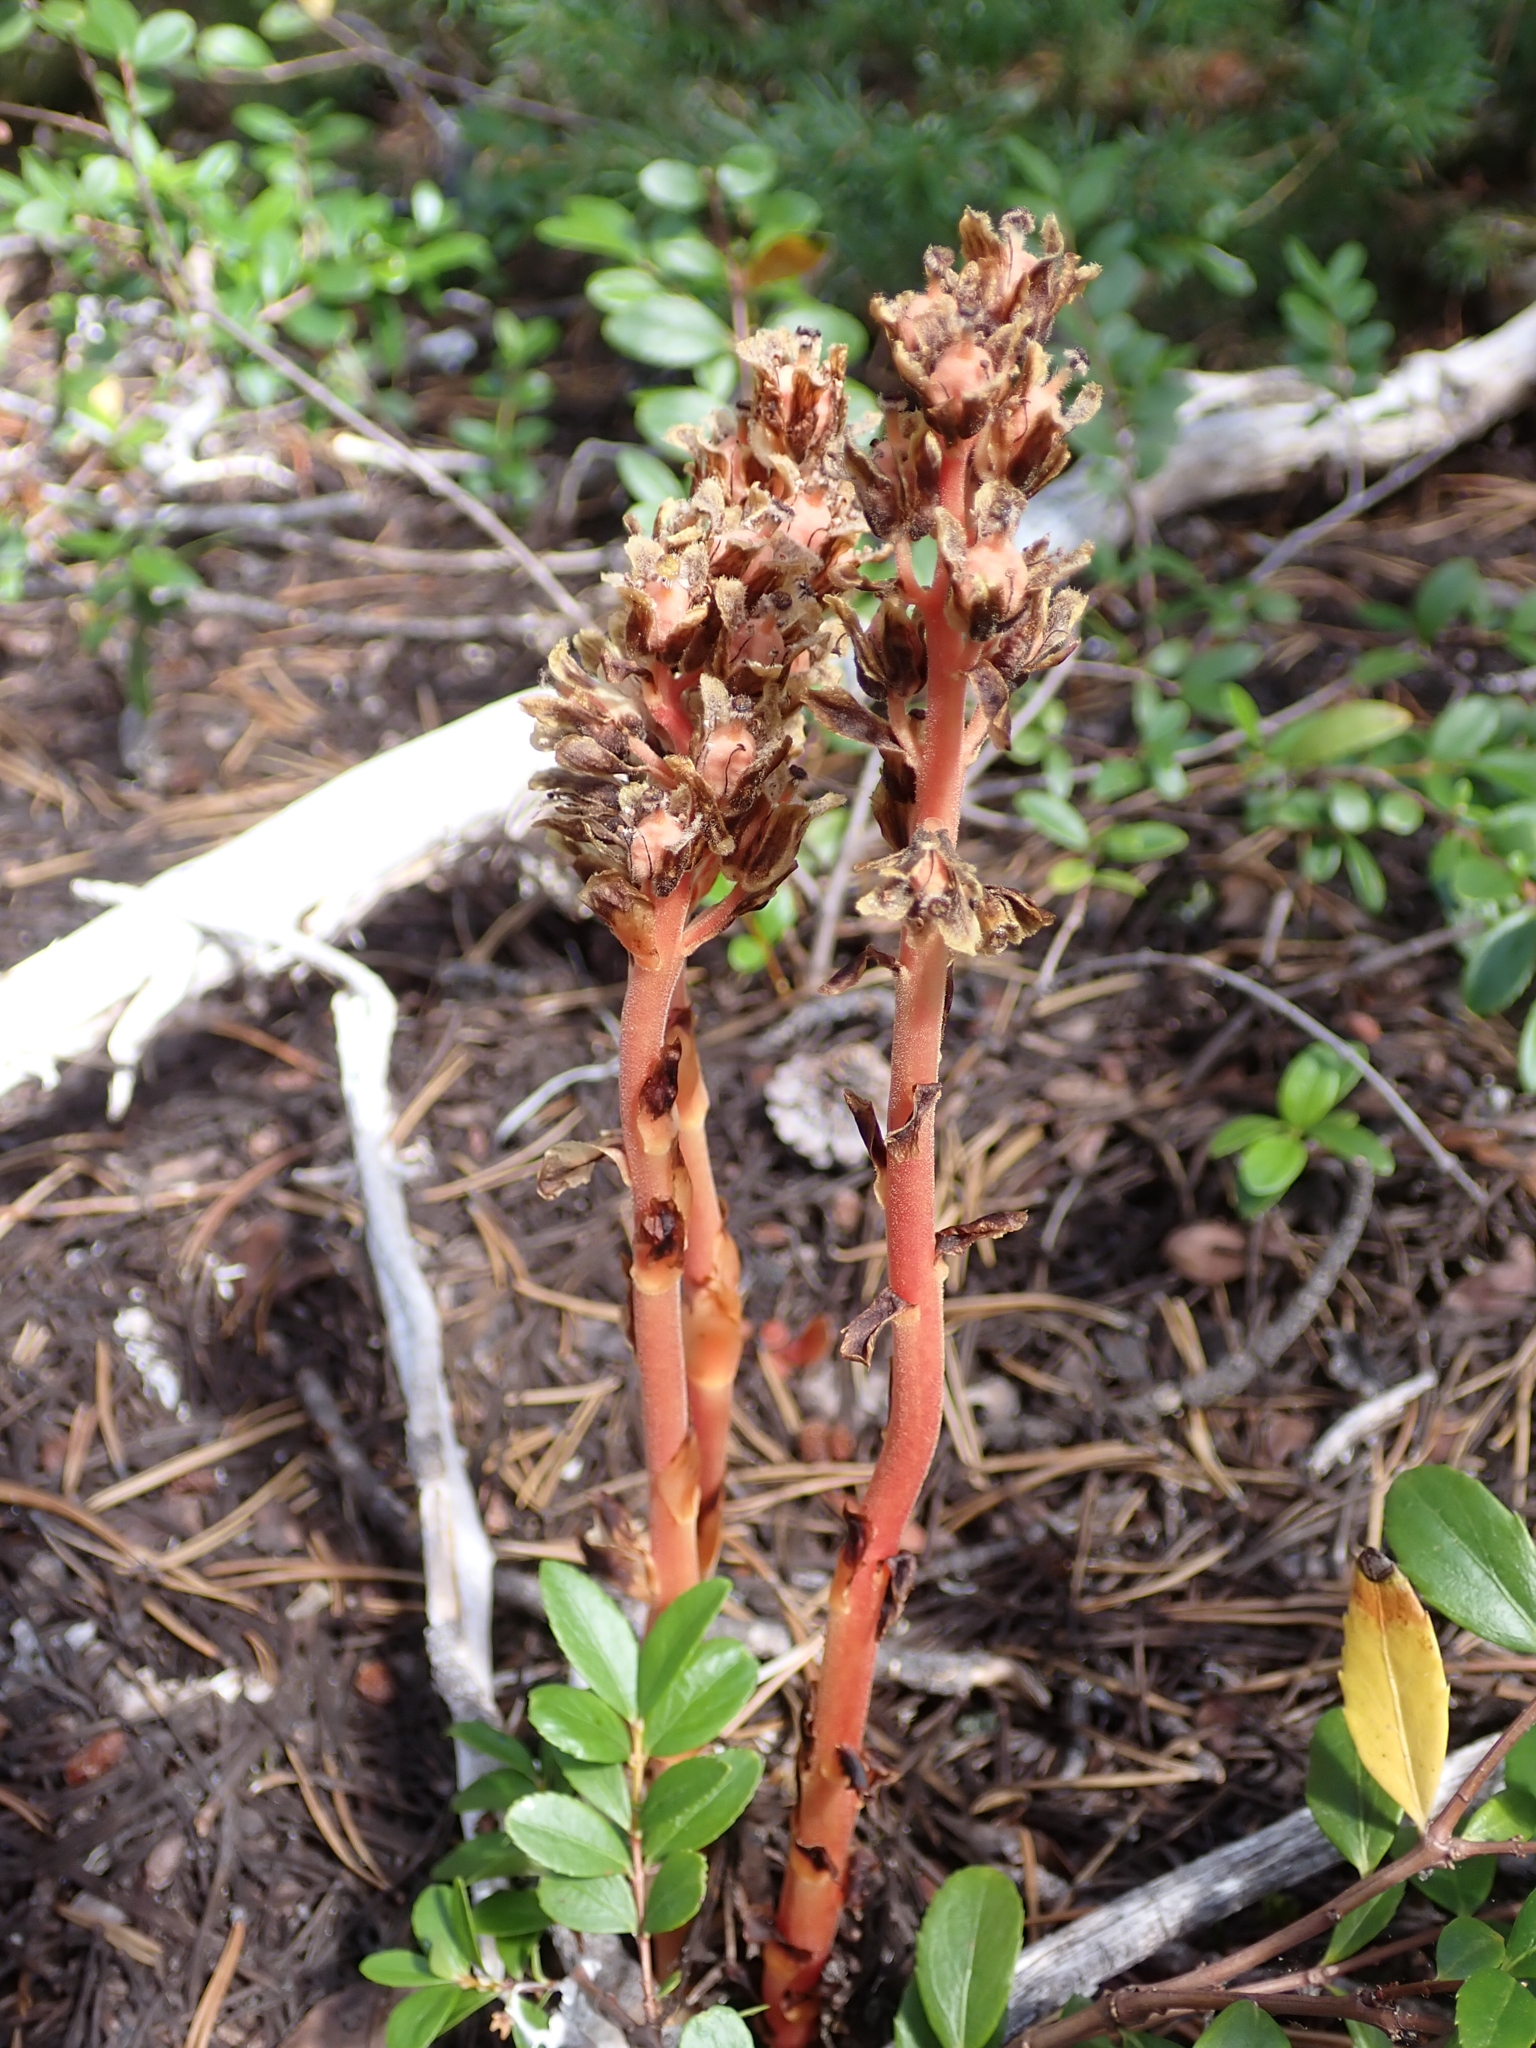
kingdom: Plantae
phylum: Tracheophyta
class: Magnoliopsida
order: Ericales
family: Ericaceae
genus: Hypopitys
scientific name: Hypopitys monotropa
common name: Yellow bird's-nest
